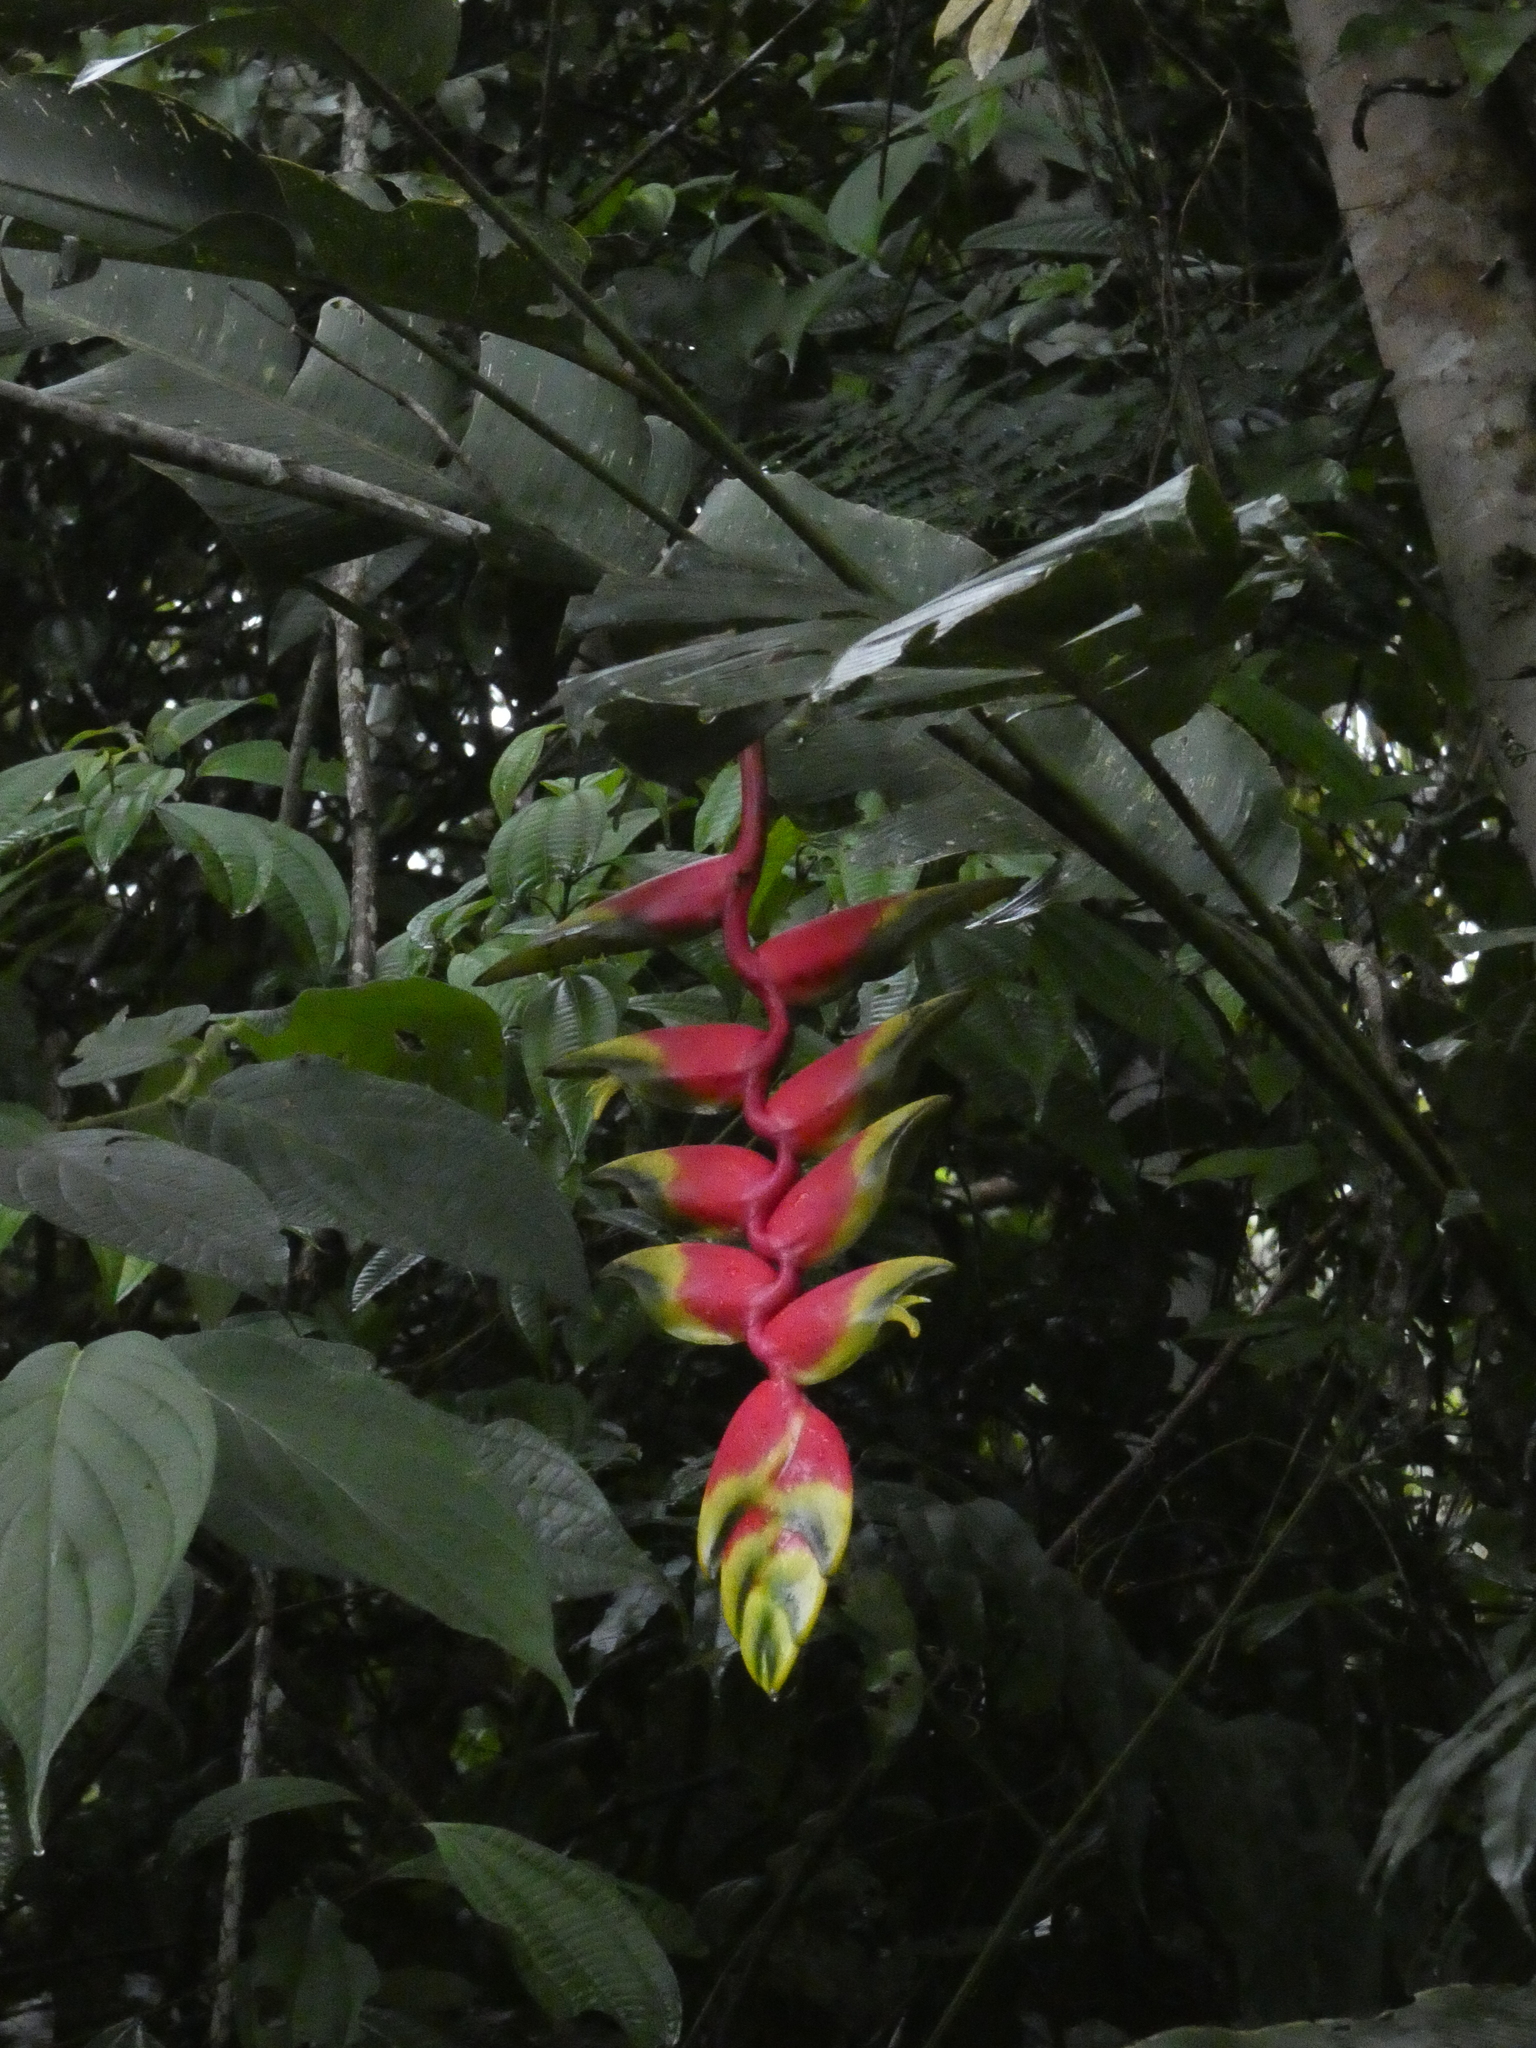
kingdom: Plantae
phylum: Tracheophyta
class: Liliopsida
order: Zingiberales
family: Heliconiaceae
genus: Heliconia
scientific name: Heliconia rostrata
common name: False bird of paradise
